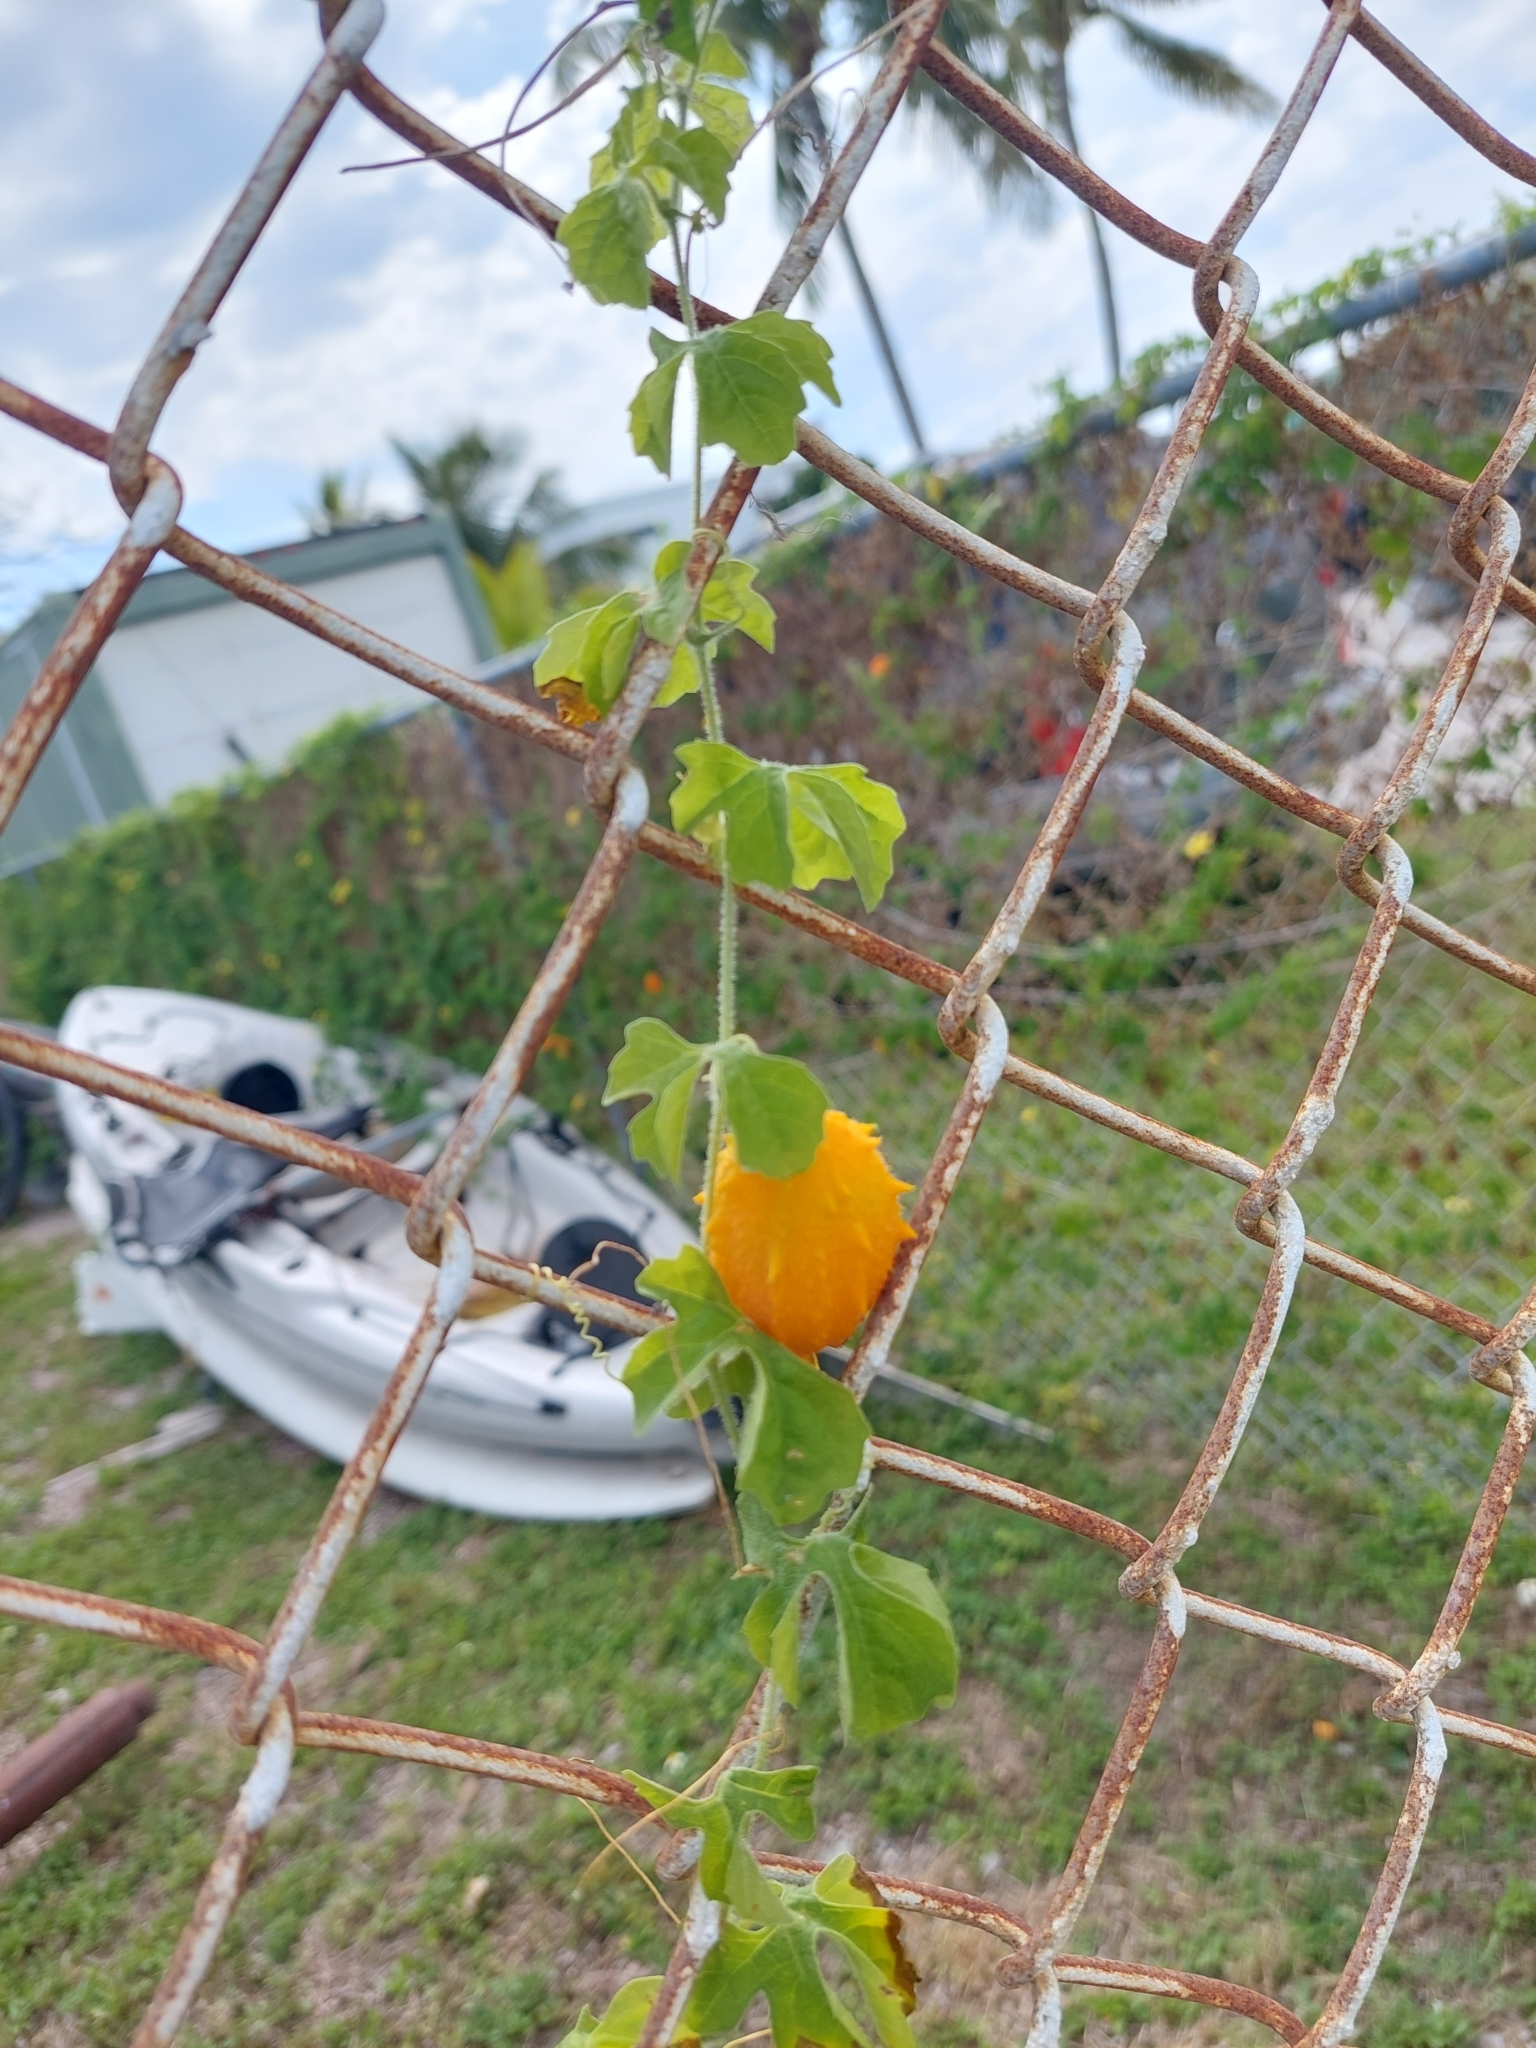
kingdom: Plantae
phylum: Tracheophyta
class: Magnoliopsida
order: Cucurbitales
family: Cucurbitaceae
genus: Momordica
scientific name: Momordica charantia
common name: Balsampear
